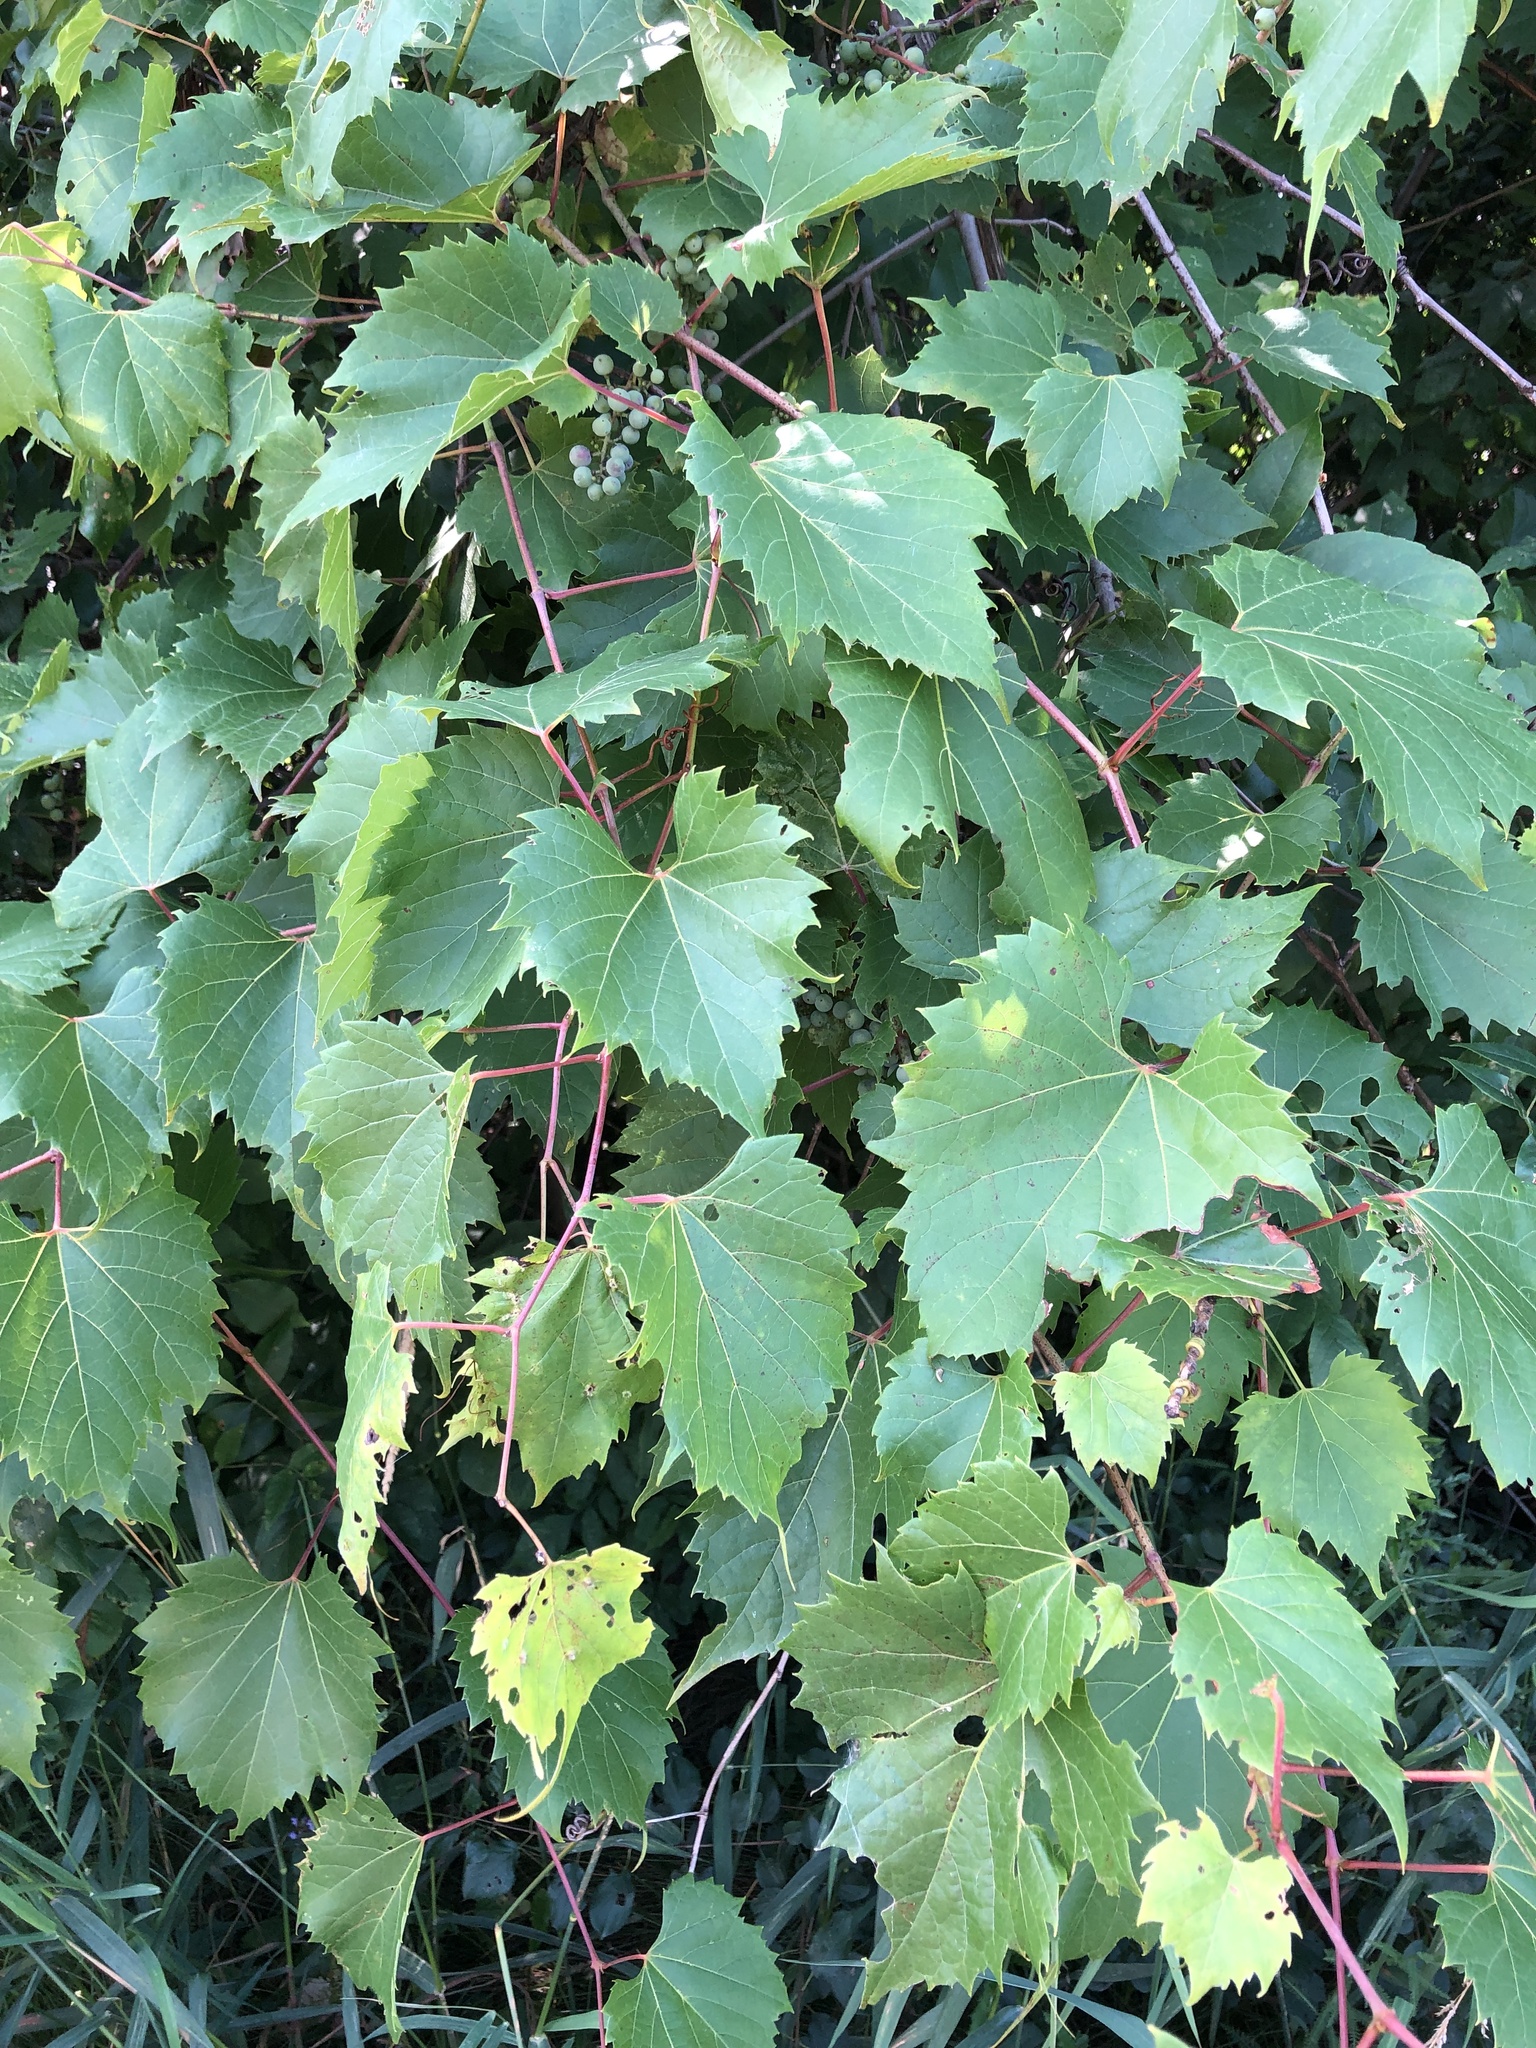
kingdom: Plantae
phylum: Tracheophyta
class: Magnoliopsida
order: Vitales
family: Vitaceae
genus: Vitis
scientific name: Vitis riparia
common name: Frost grape
